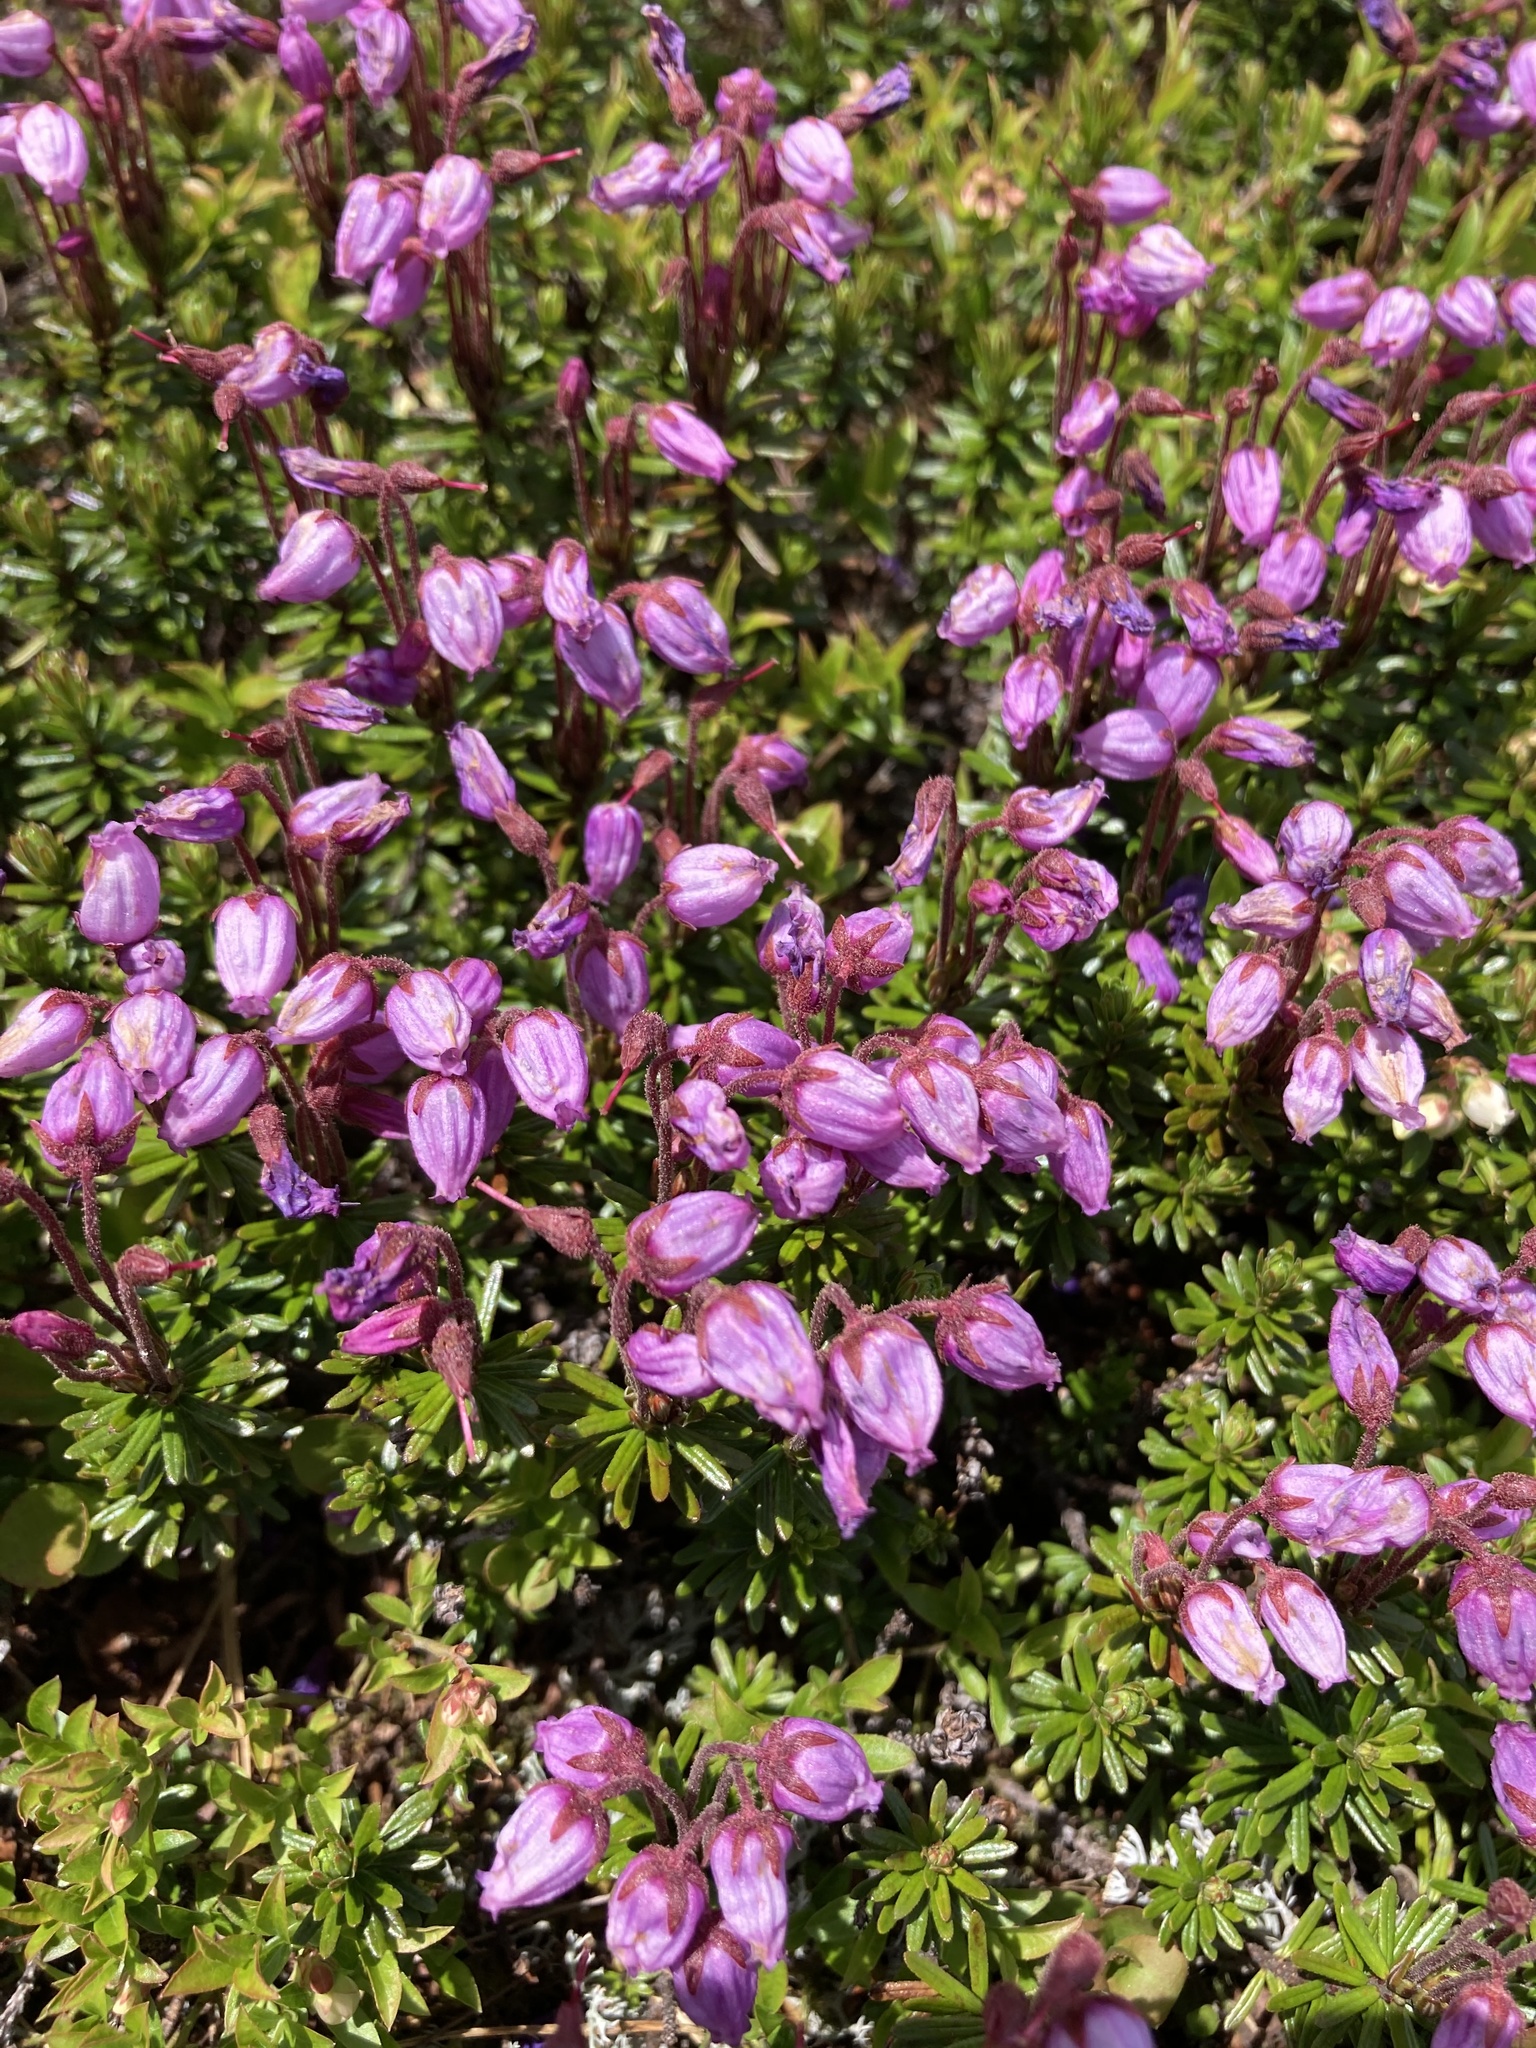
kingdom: Plantae
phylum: Tracheophyta
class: Magnoliopsida
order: Ericales
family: Ericaceae
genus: Phyllodoce
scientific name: Phyllodoce caerulea
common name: Blue heath
